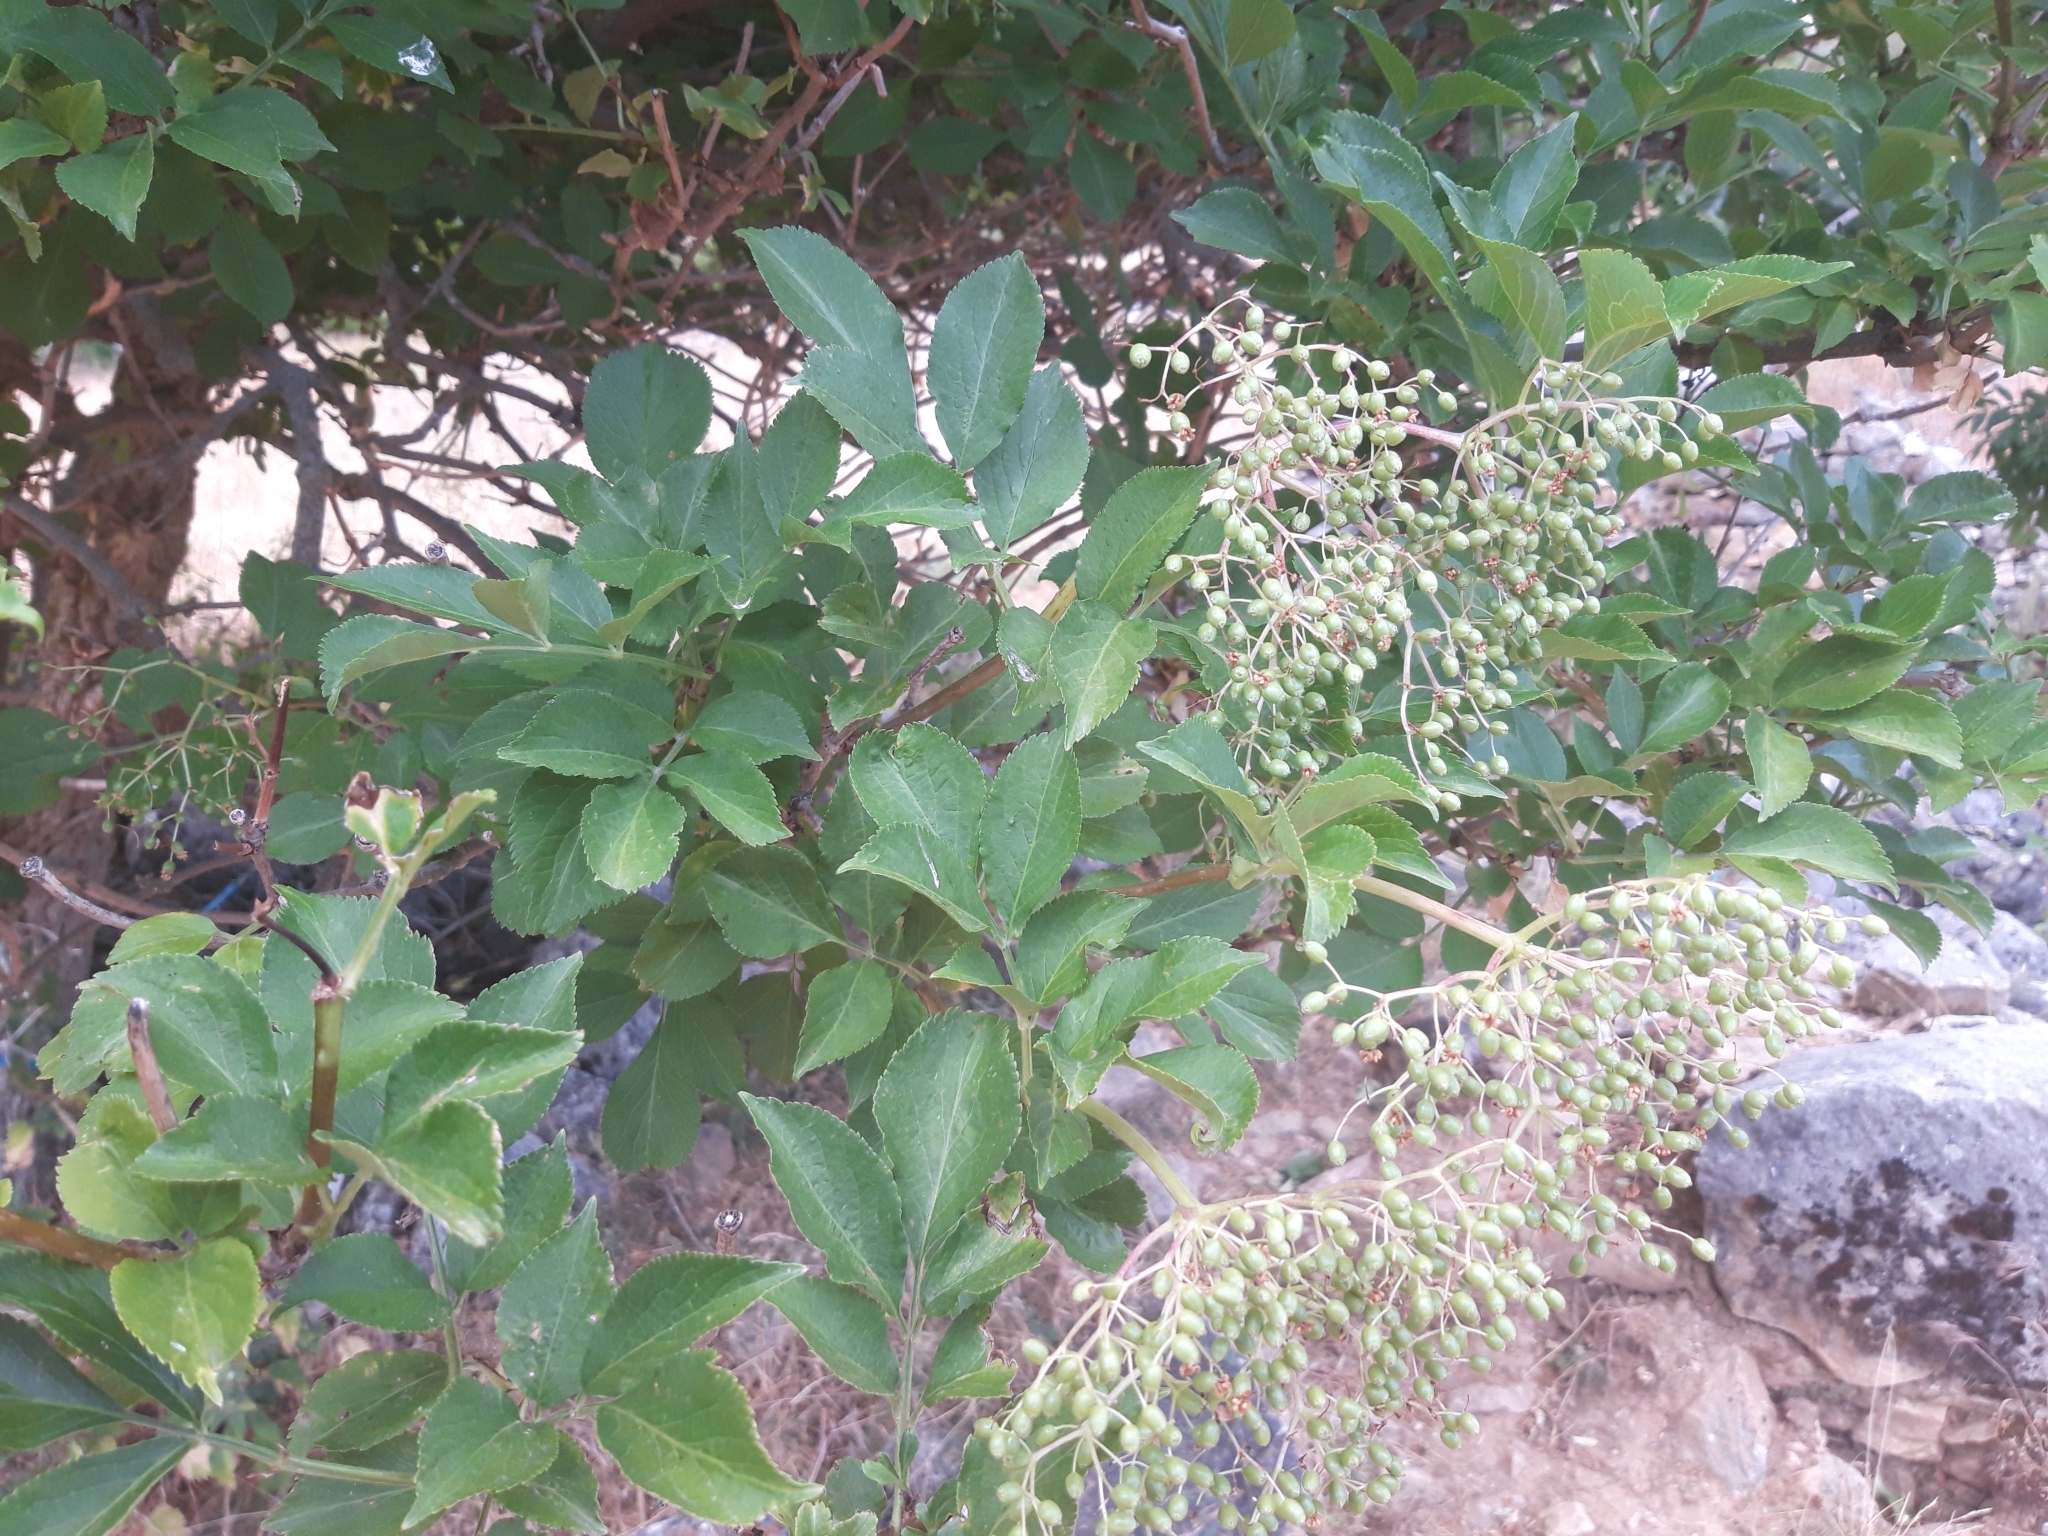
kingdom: Plantae
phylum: Tracheophyta
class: Magnoliopsida
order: Dipsacales
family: Viburnaceae
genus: Sambucus
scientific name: Sambucus nigra
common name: Elder
